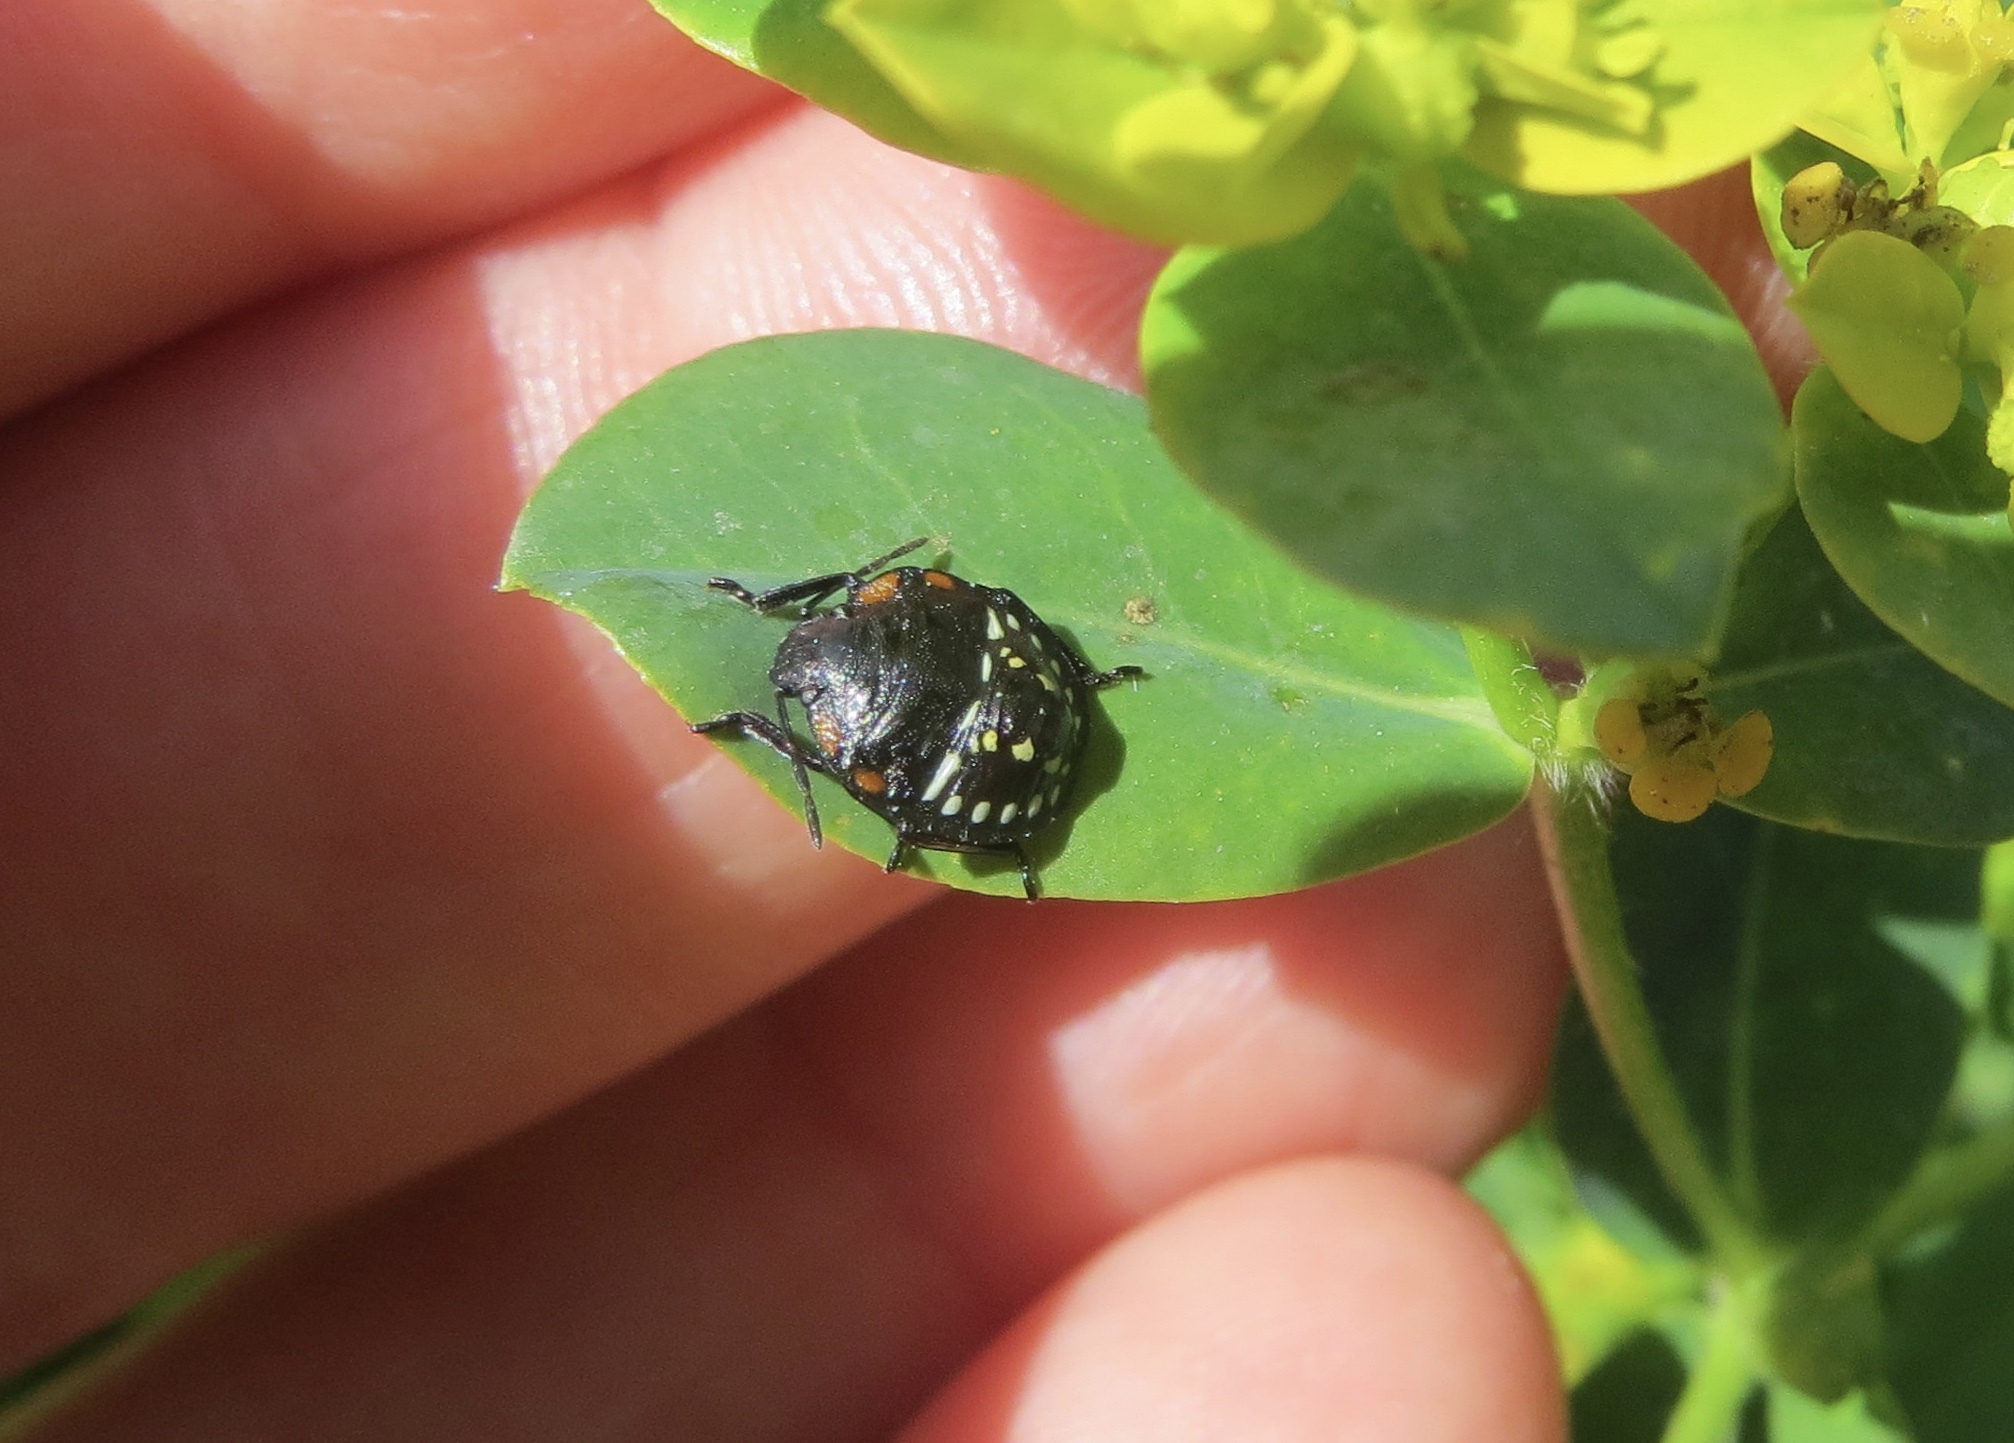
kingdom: Animalia
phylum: Arthropoda
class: Insecta
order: Hemiptera
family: Pentatomidae
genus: Nezara
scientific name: Nezara viridula
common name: Southern green stink bug
